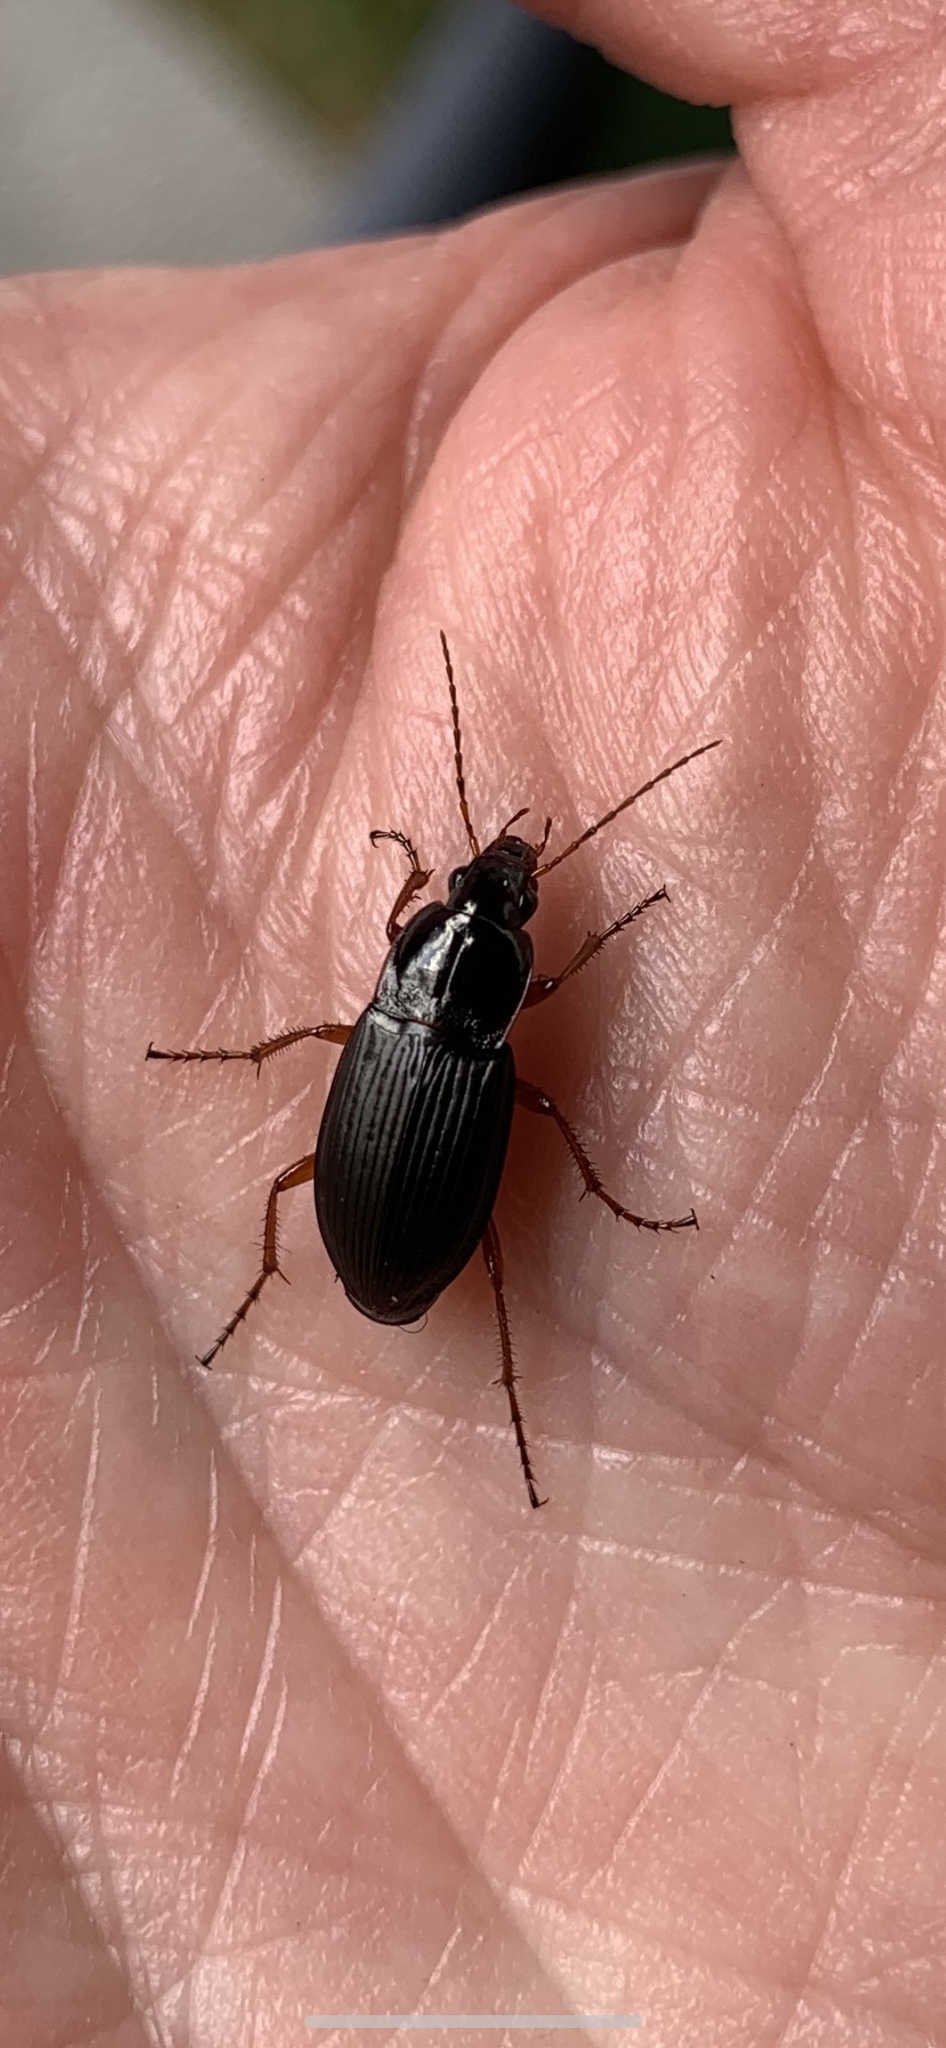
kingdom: Animalia
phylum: Arthropoda
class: Insecta
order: Coleoptera
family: Carabidae
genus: Calathus
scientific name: Calathus fuscipes
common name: Dark-footed harp ground beetle
